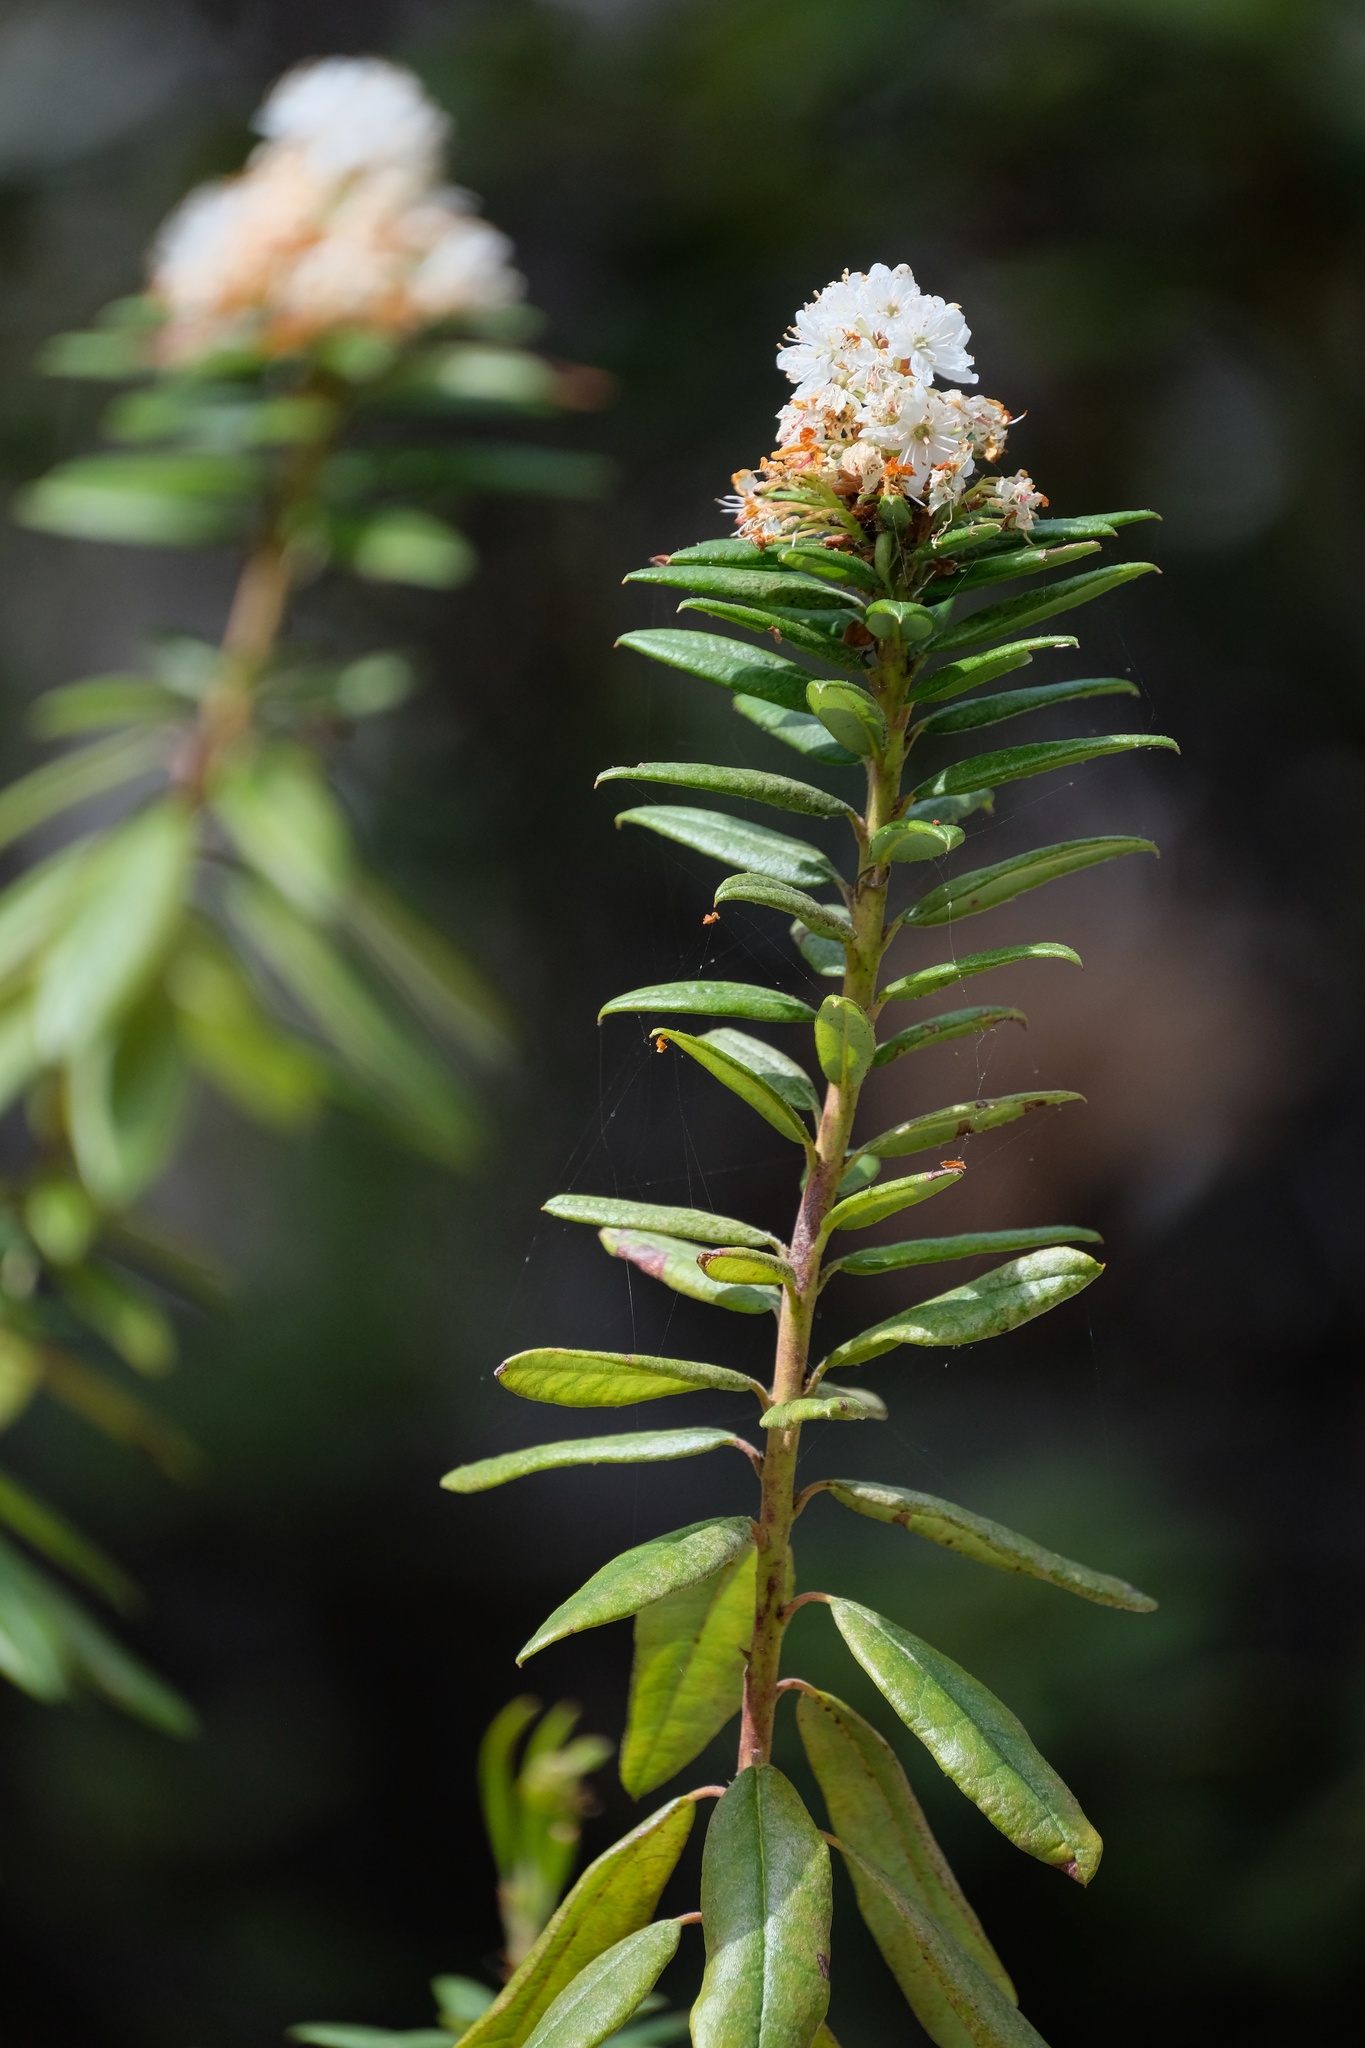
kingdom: Plantae
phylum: Tracheophyta
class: Magnoliopsida
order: Ericales
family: Ericaceae
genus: Rhododendron
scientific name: Rhododendron columbianum
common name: Western labrador tea
